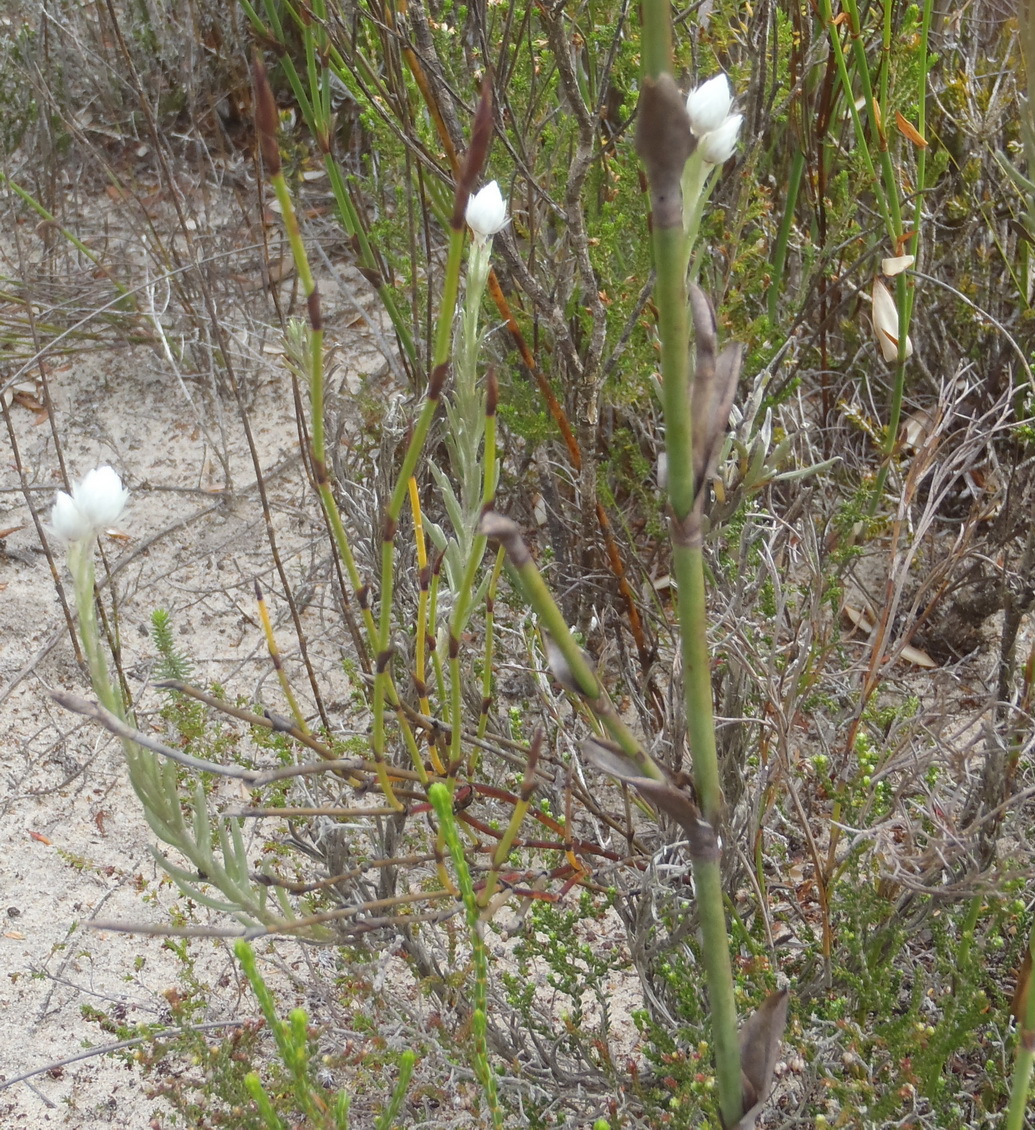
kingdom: Plantae
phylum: Tracheophyta
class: Magnoliopsida
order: Asterales
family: Asteraceae
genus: Achyranthemum
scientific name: Achyranthemum paniculatum
